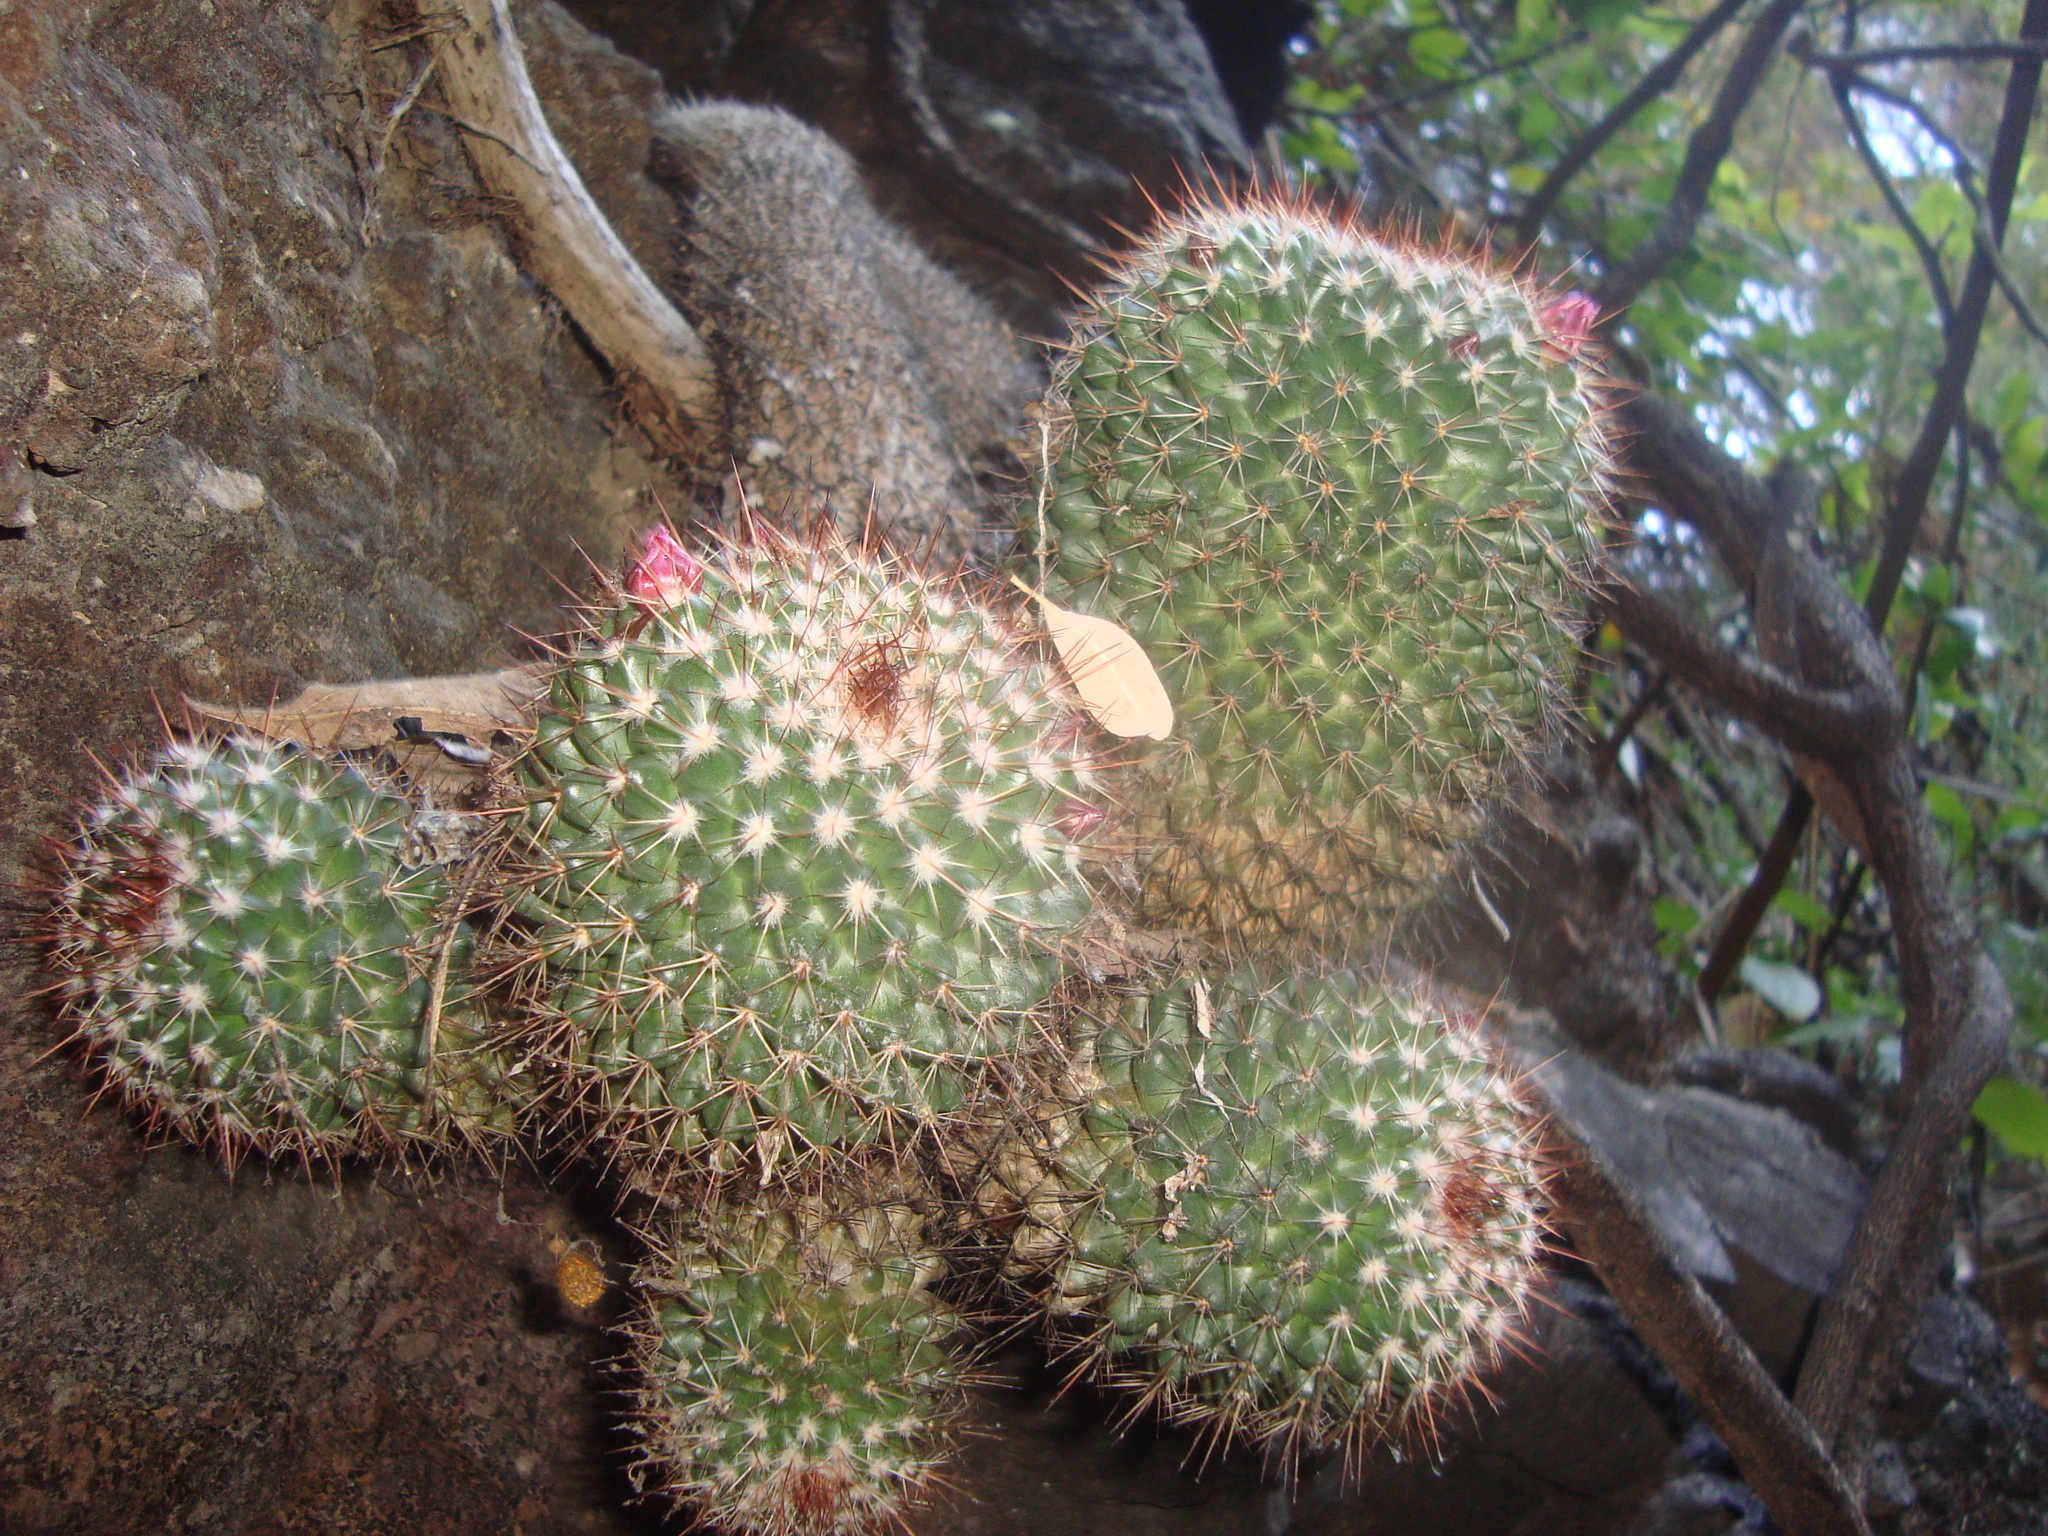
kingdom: Plantae
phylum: Tracheophyta
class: Magnoliopsida
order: Caryophyllales
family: Cactaceae
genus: Mammillaria
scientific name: Mammillaria scrippsiana
